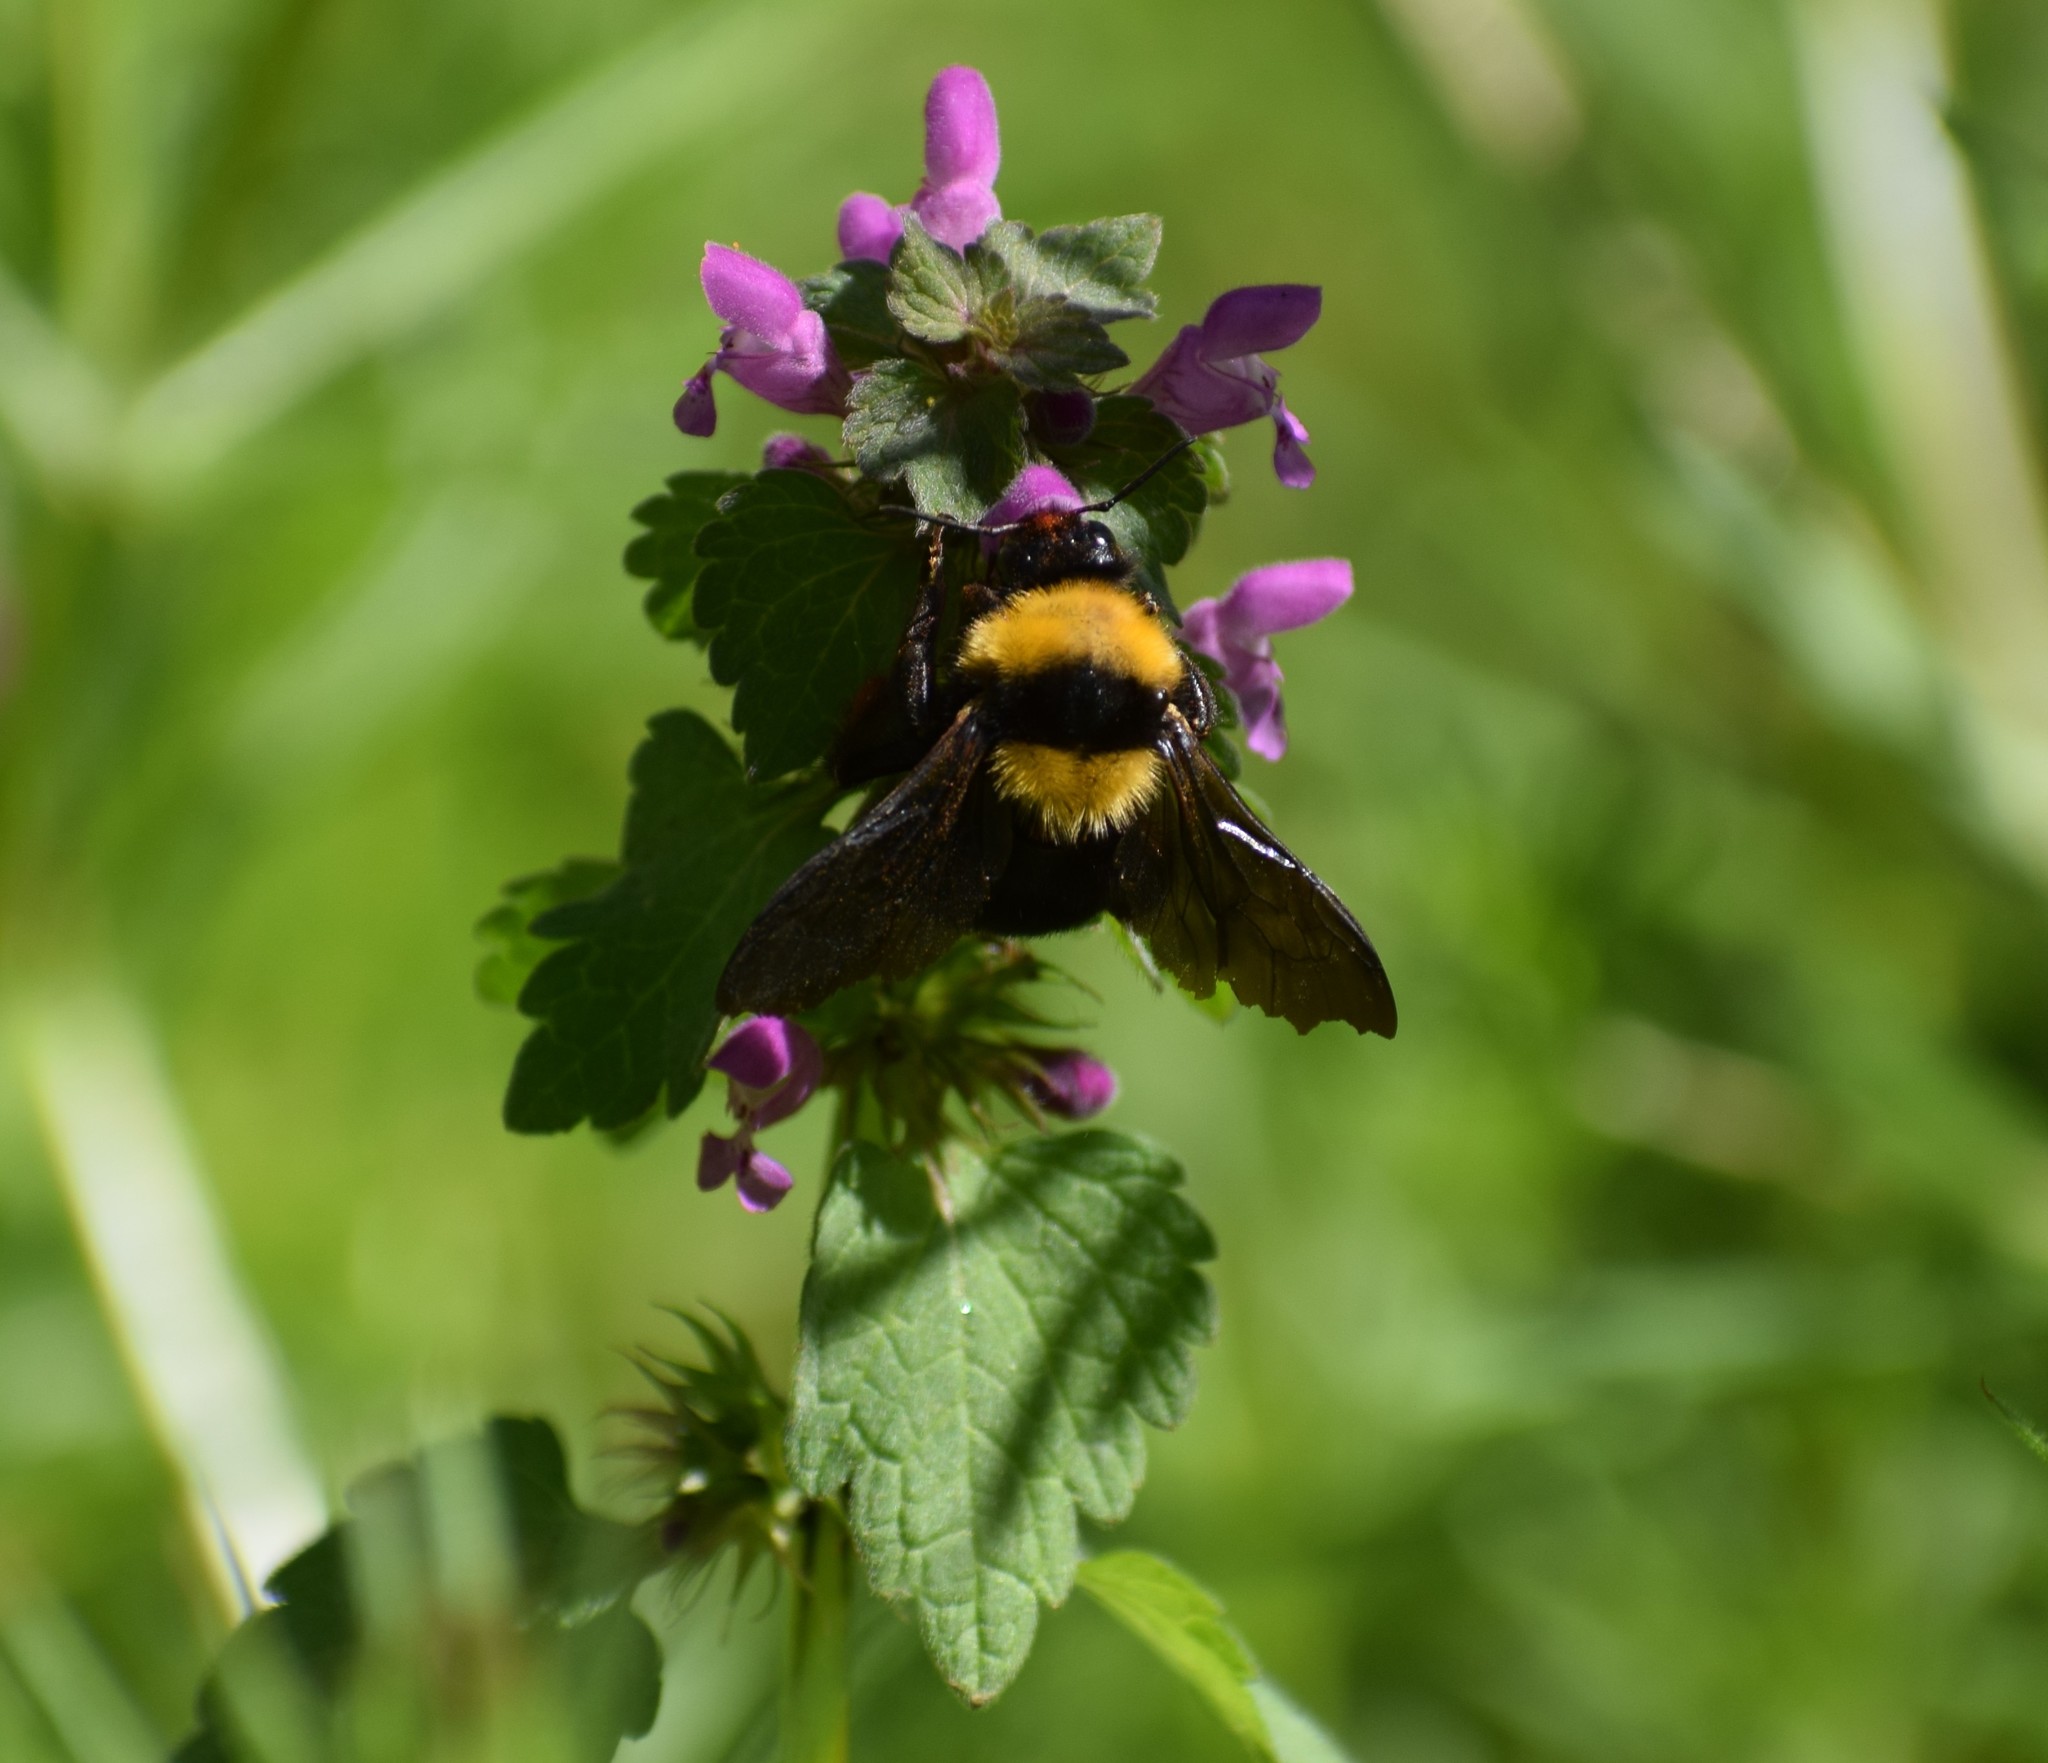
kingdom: Animalia
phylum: Arthropoda
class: Insecta
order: Hymenoptera
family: Apidae
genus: Bombus
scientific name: Bombus argillaceus
